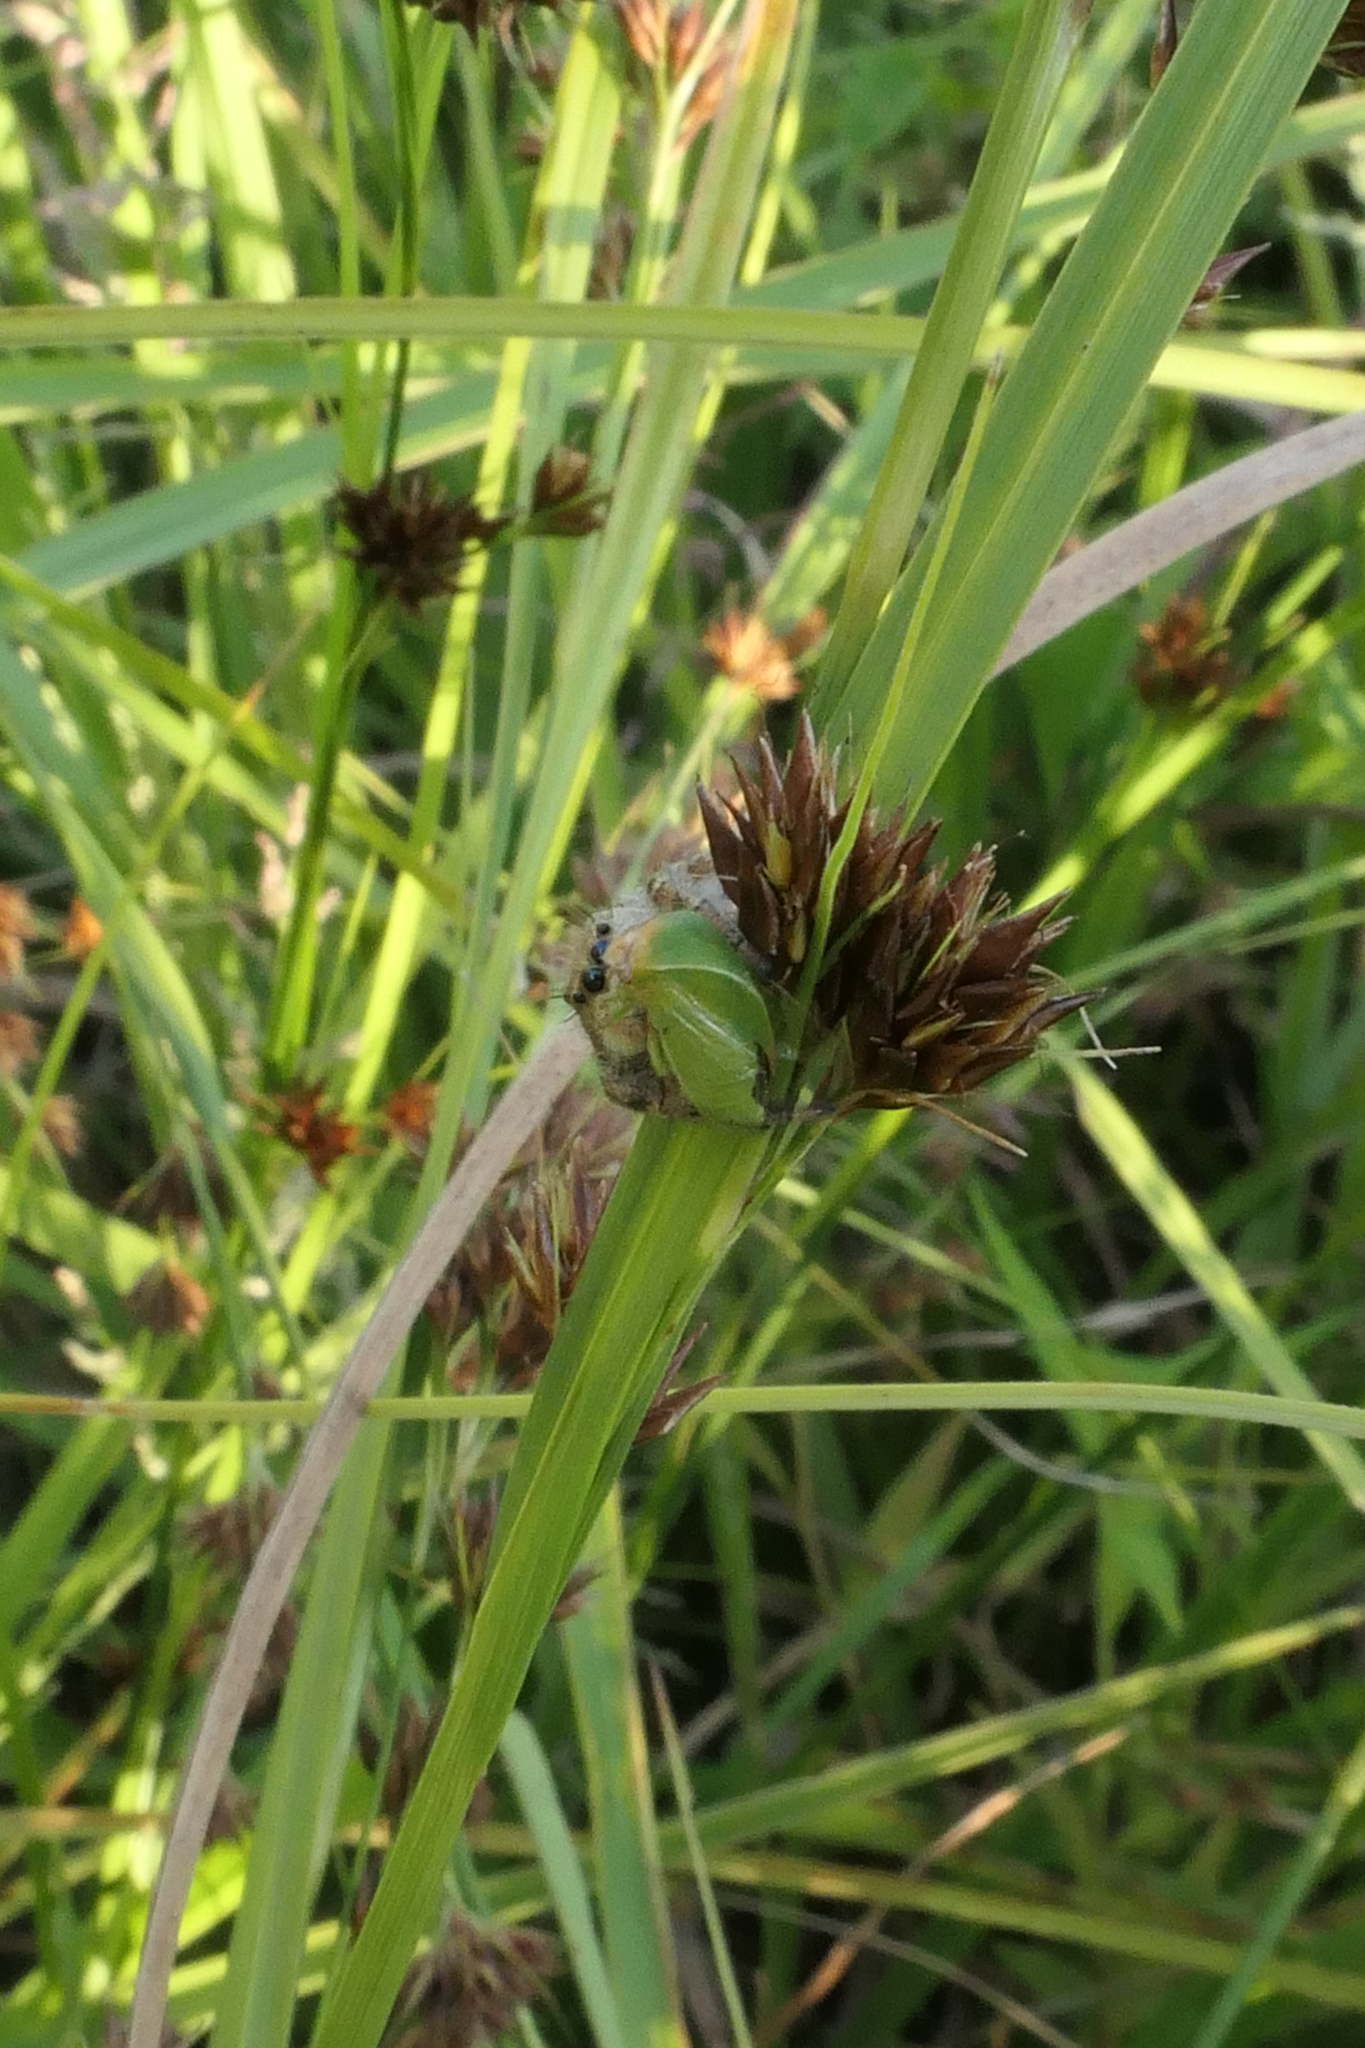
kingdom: Animalia
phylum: Arthropoda
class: Arachnida
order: Araneae
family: Salticidae
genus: Phidippus
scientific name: Phidippus clarus
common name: Brilliant jumping spider
